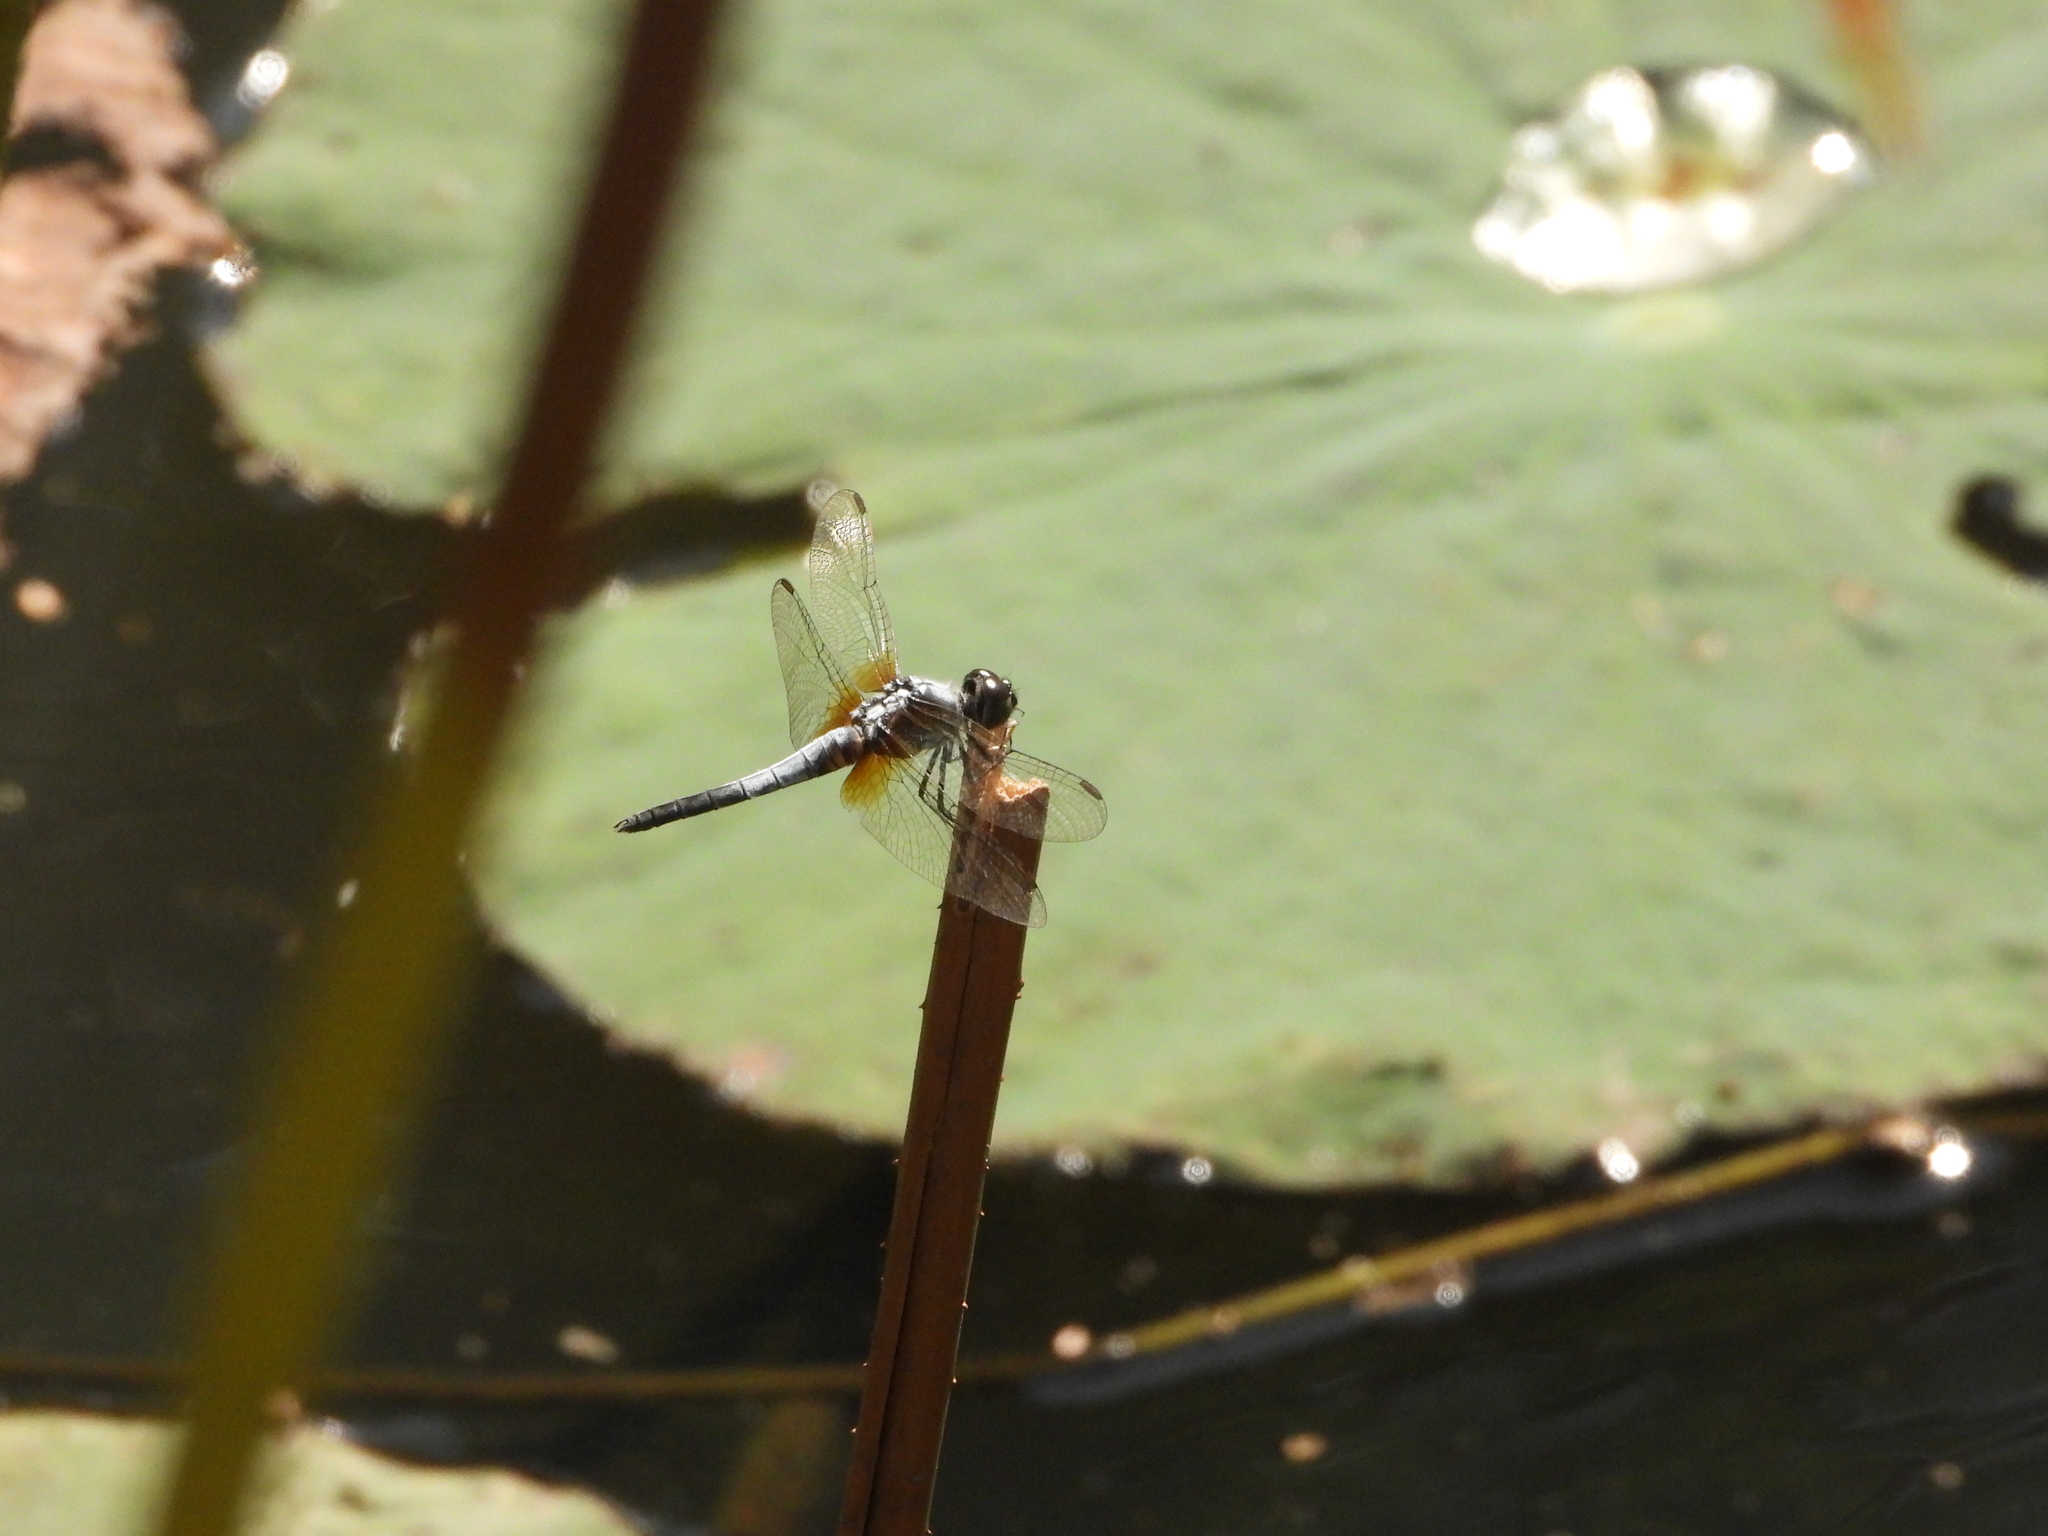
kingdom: Animalia
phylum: Arthropoda
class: Insecta
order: Odonata
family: Libellulidae
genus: Brachydiplax
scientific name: Brachydiplax chalybea
